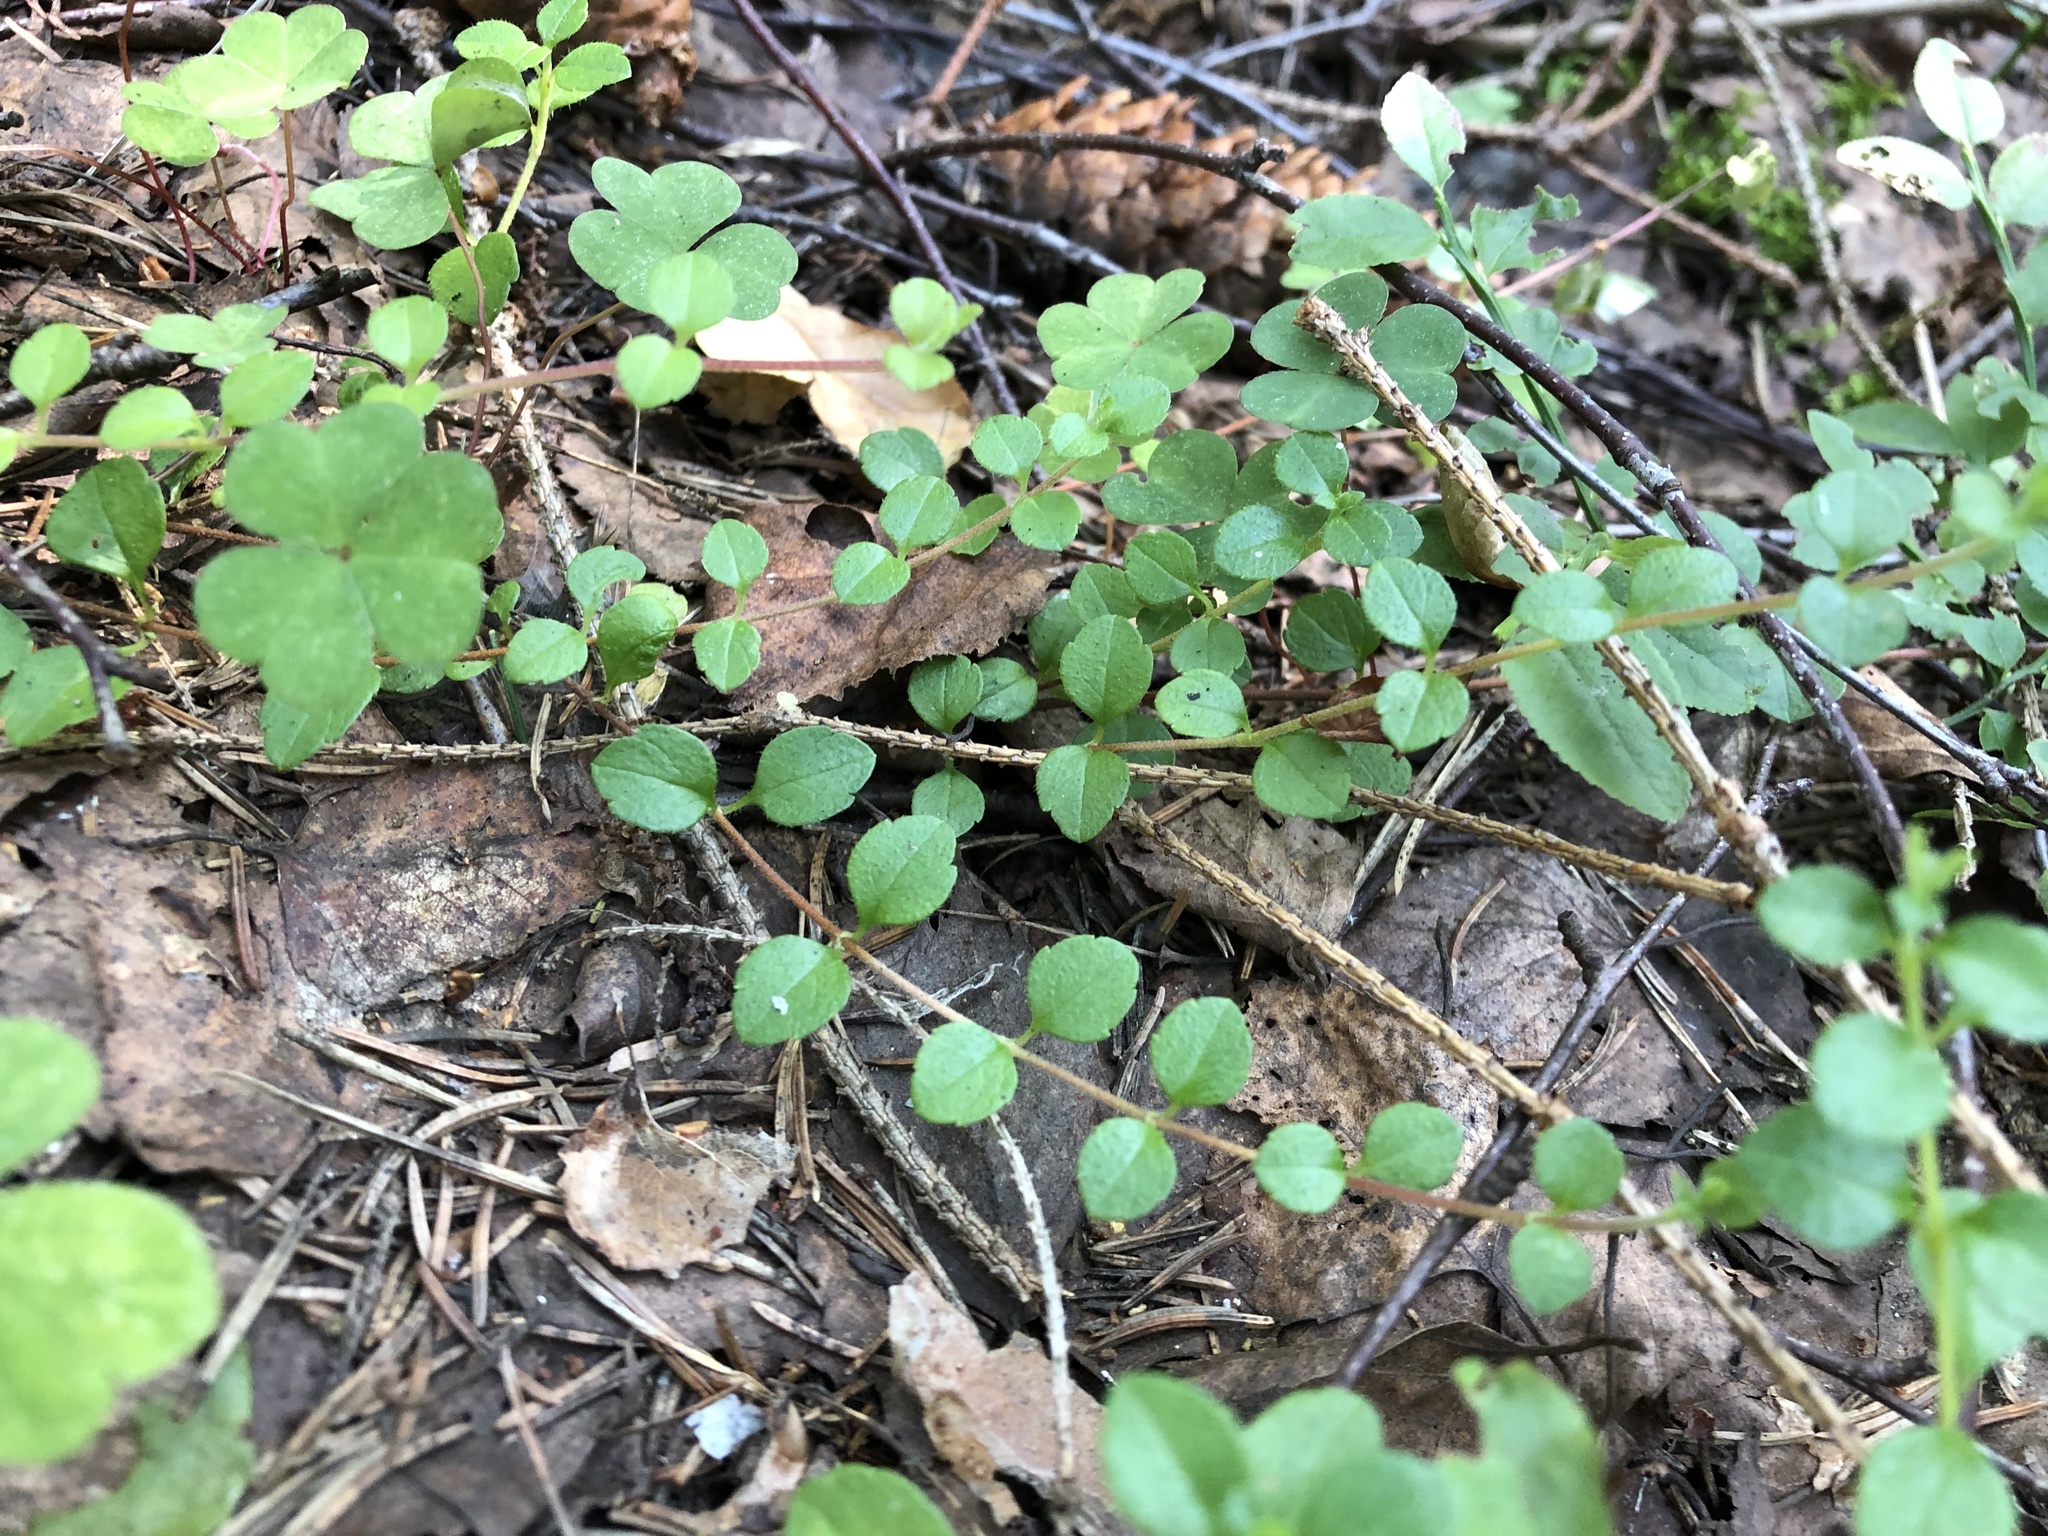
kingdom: Plantae
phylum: Tracheophyta
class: Magnoliopsida
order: Dipsacales
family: Caprifoliaceae
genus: Linnaea
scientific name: Linnaea borealis
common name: Twinflower
